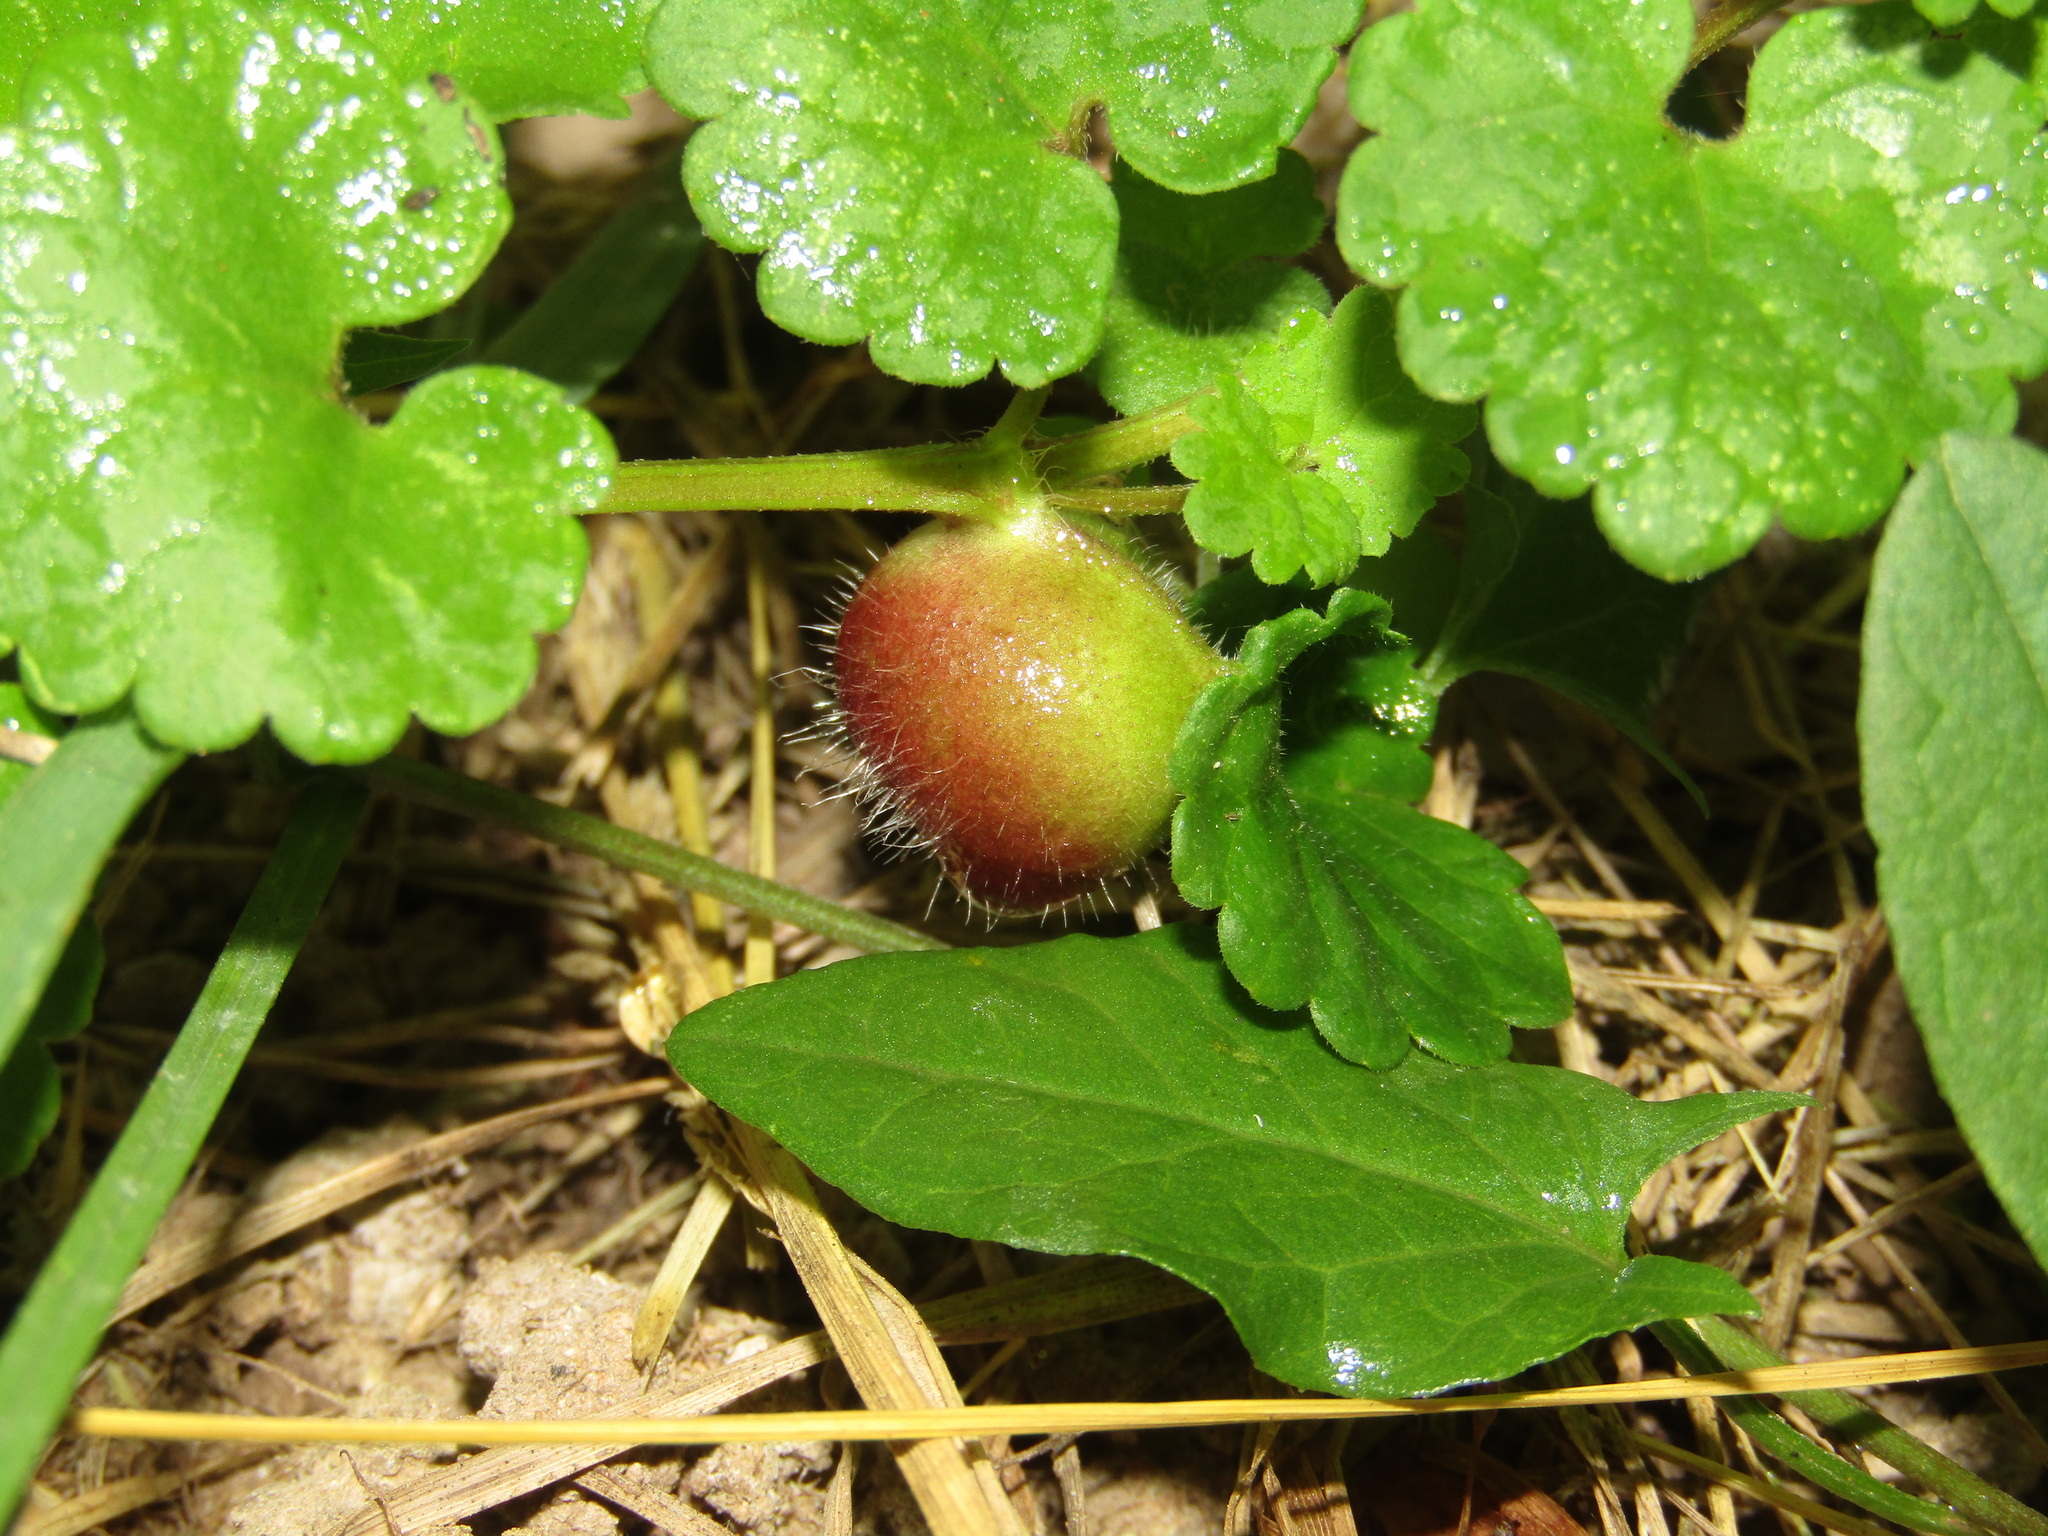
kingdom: Animalia
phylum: Arthropoda
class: Insecta
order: Hymenoptera
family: Cynipidae
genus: Liposthenes
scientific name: Liposthenes glechomae
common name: Gall wasp
